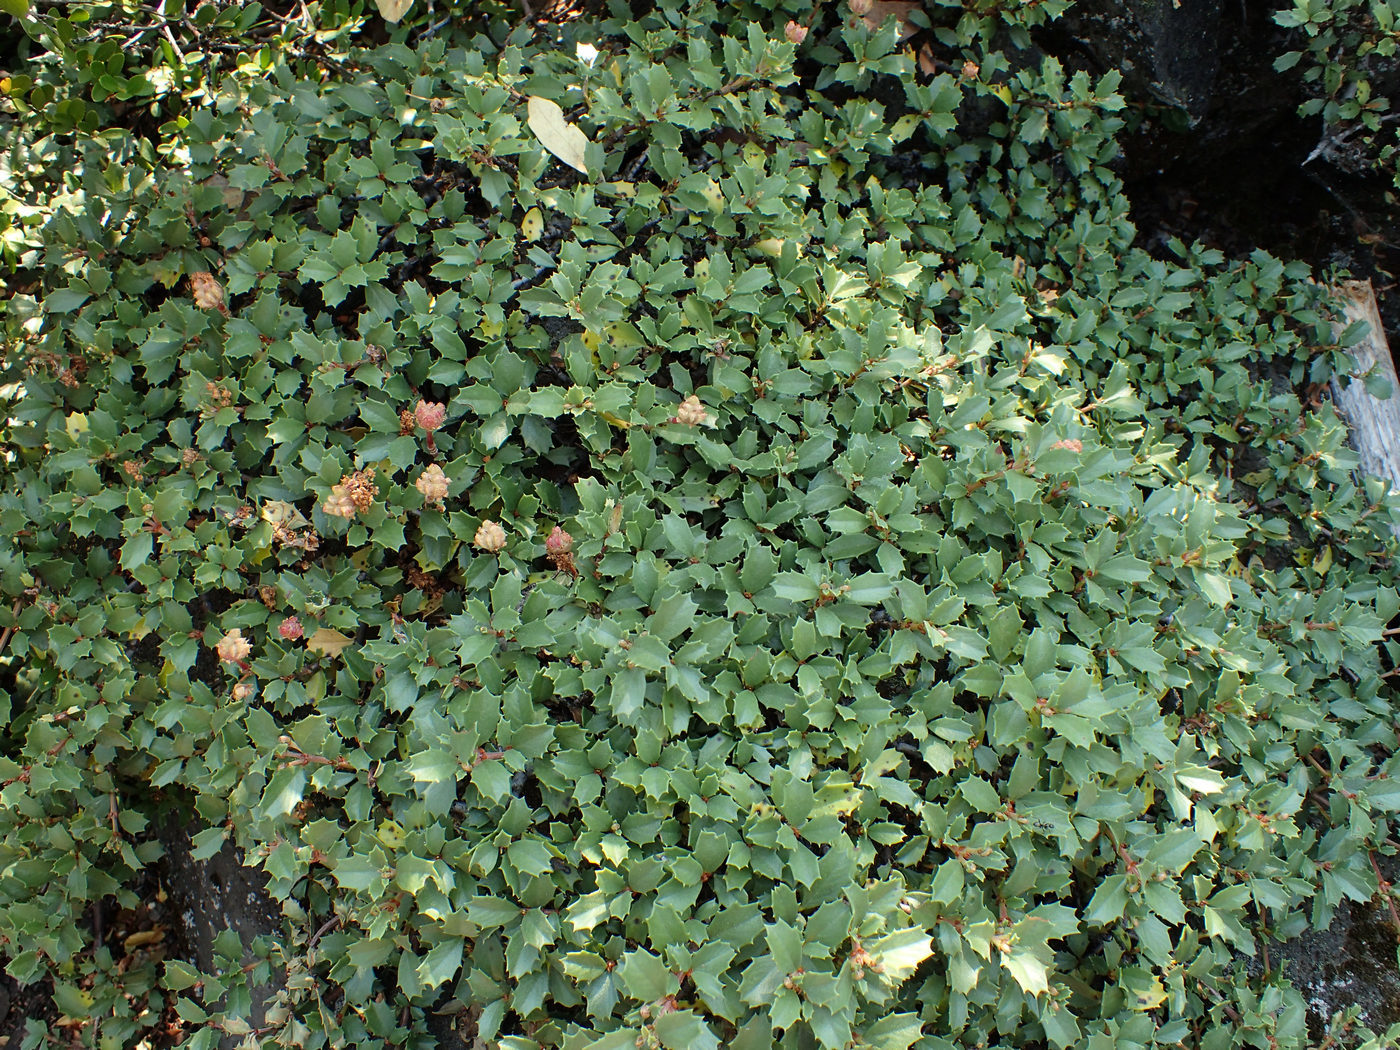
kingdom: Plantae
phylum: Tracheophyta
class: Magnoliopsida
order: Rosales
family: Rhamnaceae
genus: Ceanothus
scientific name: Ceanothus prostratus
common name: Mahala-mat
